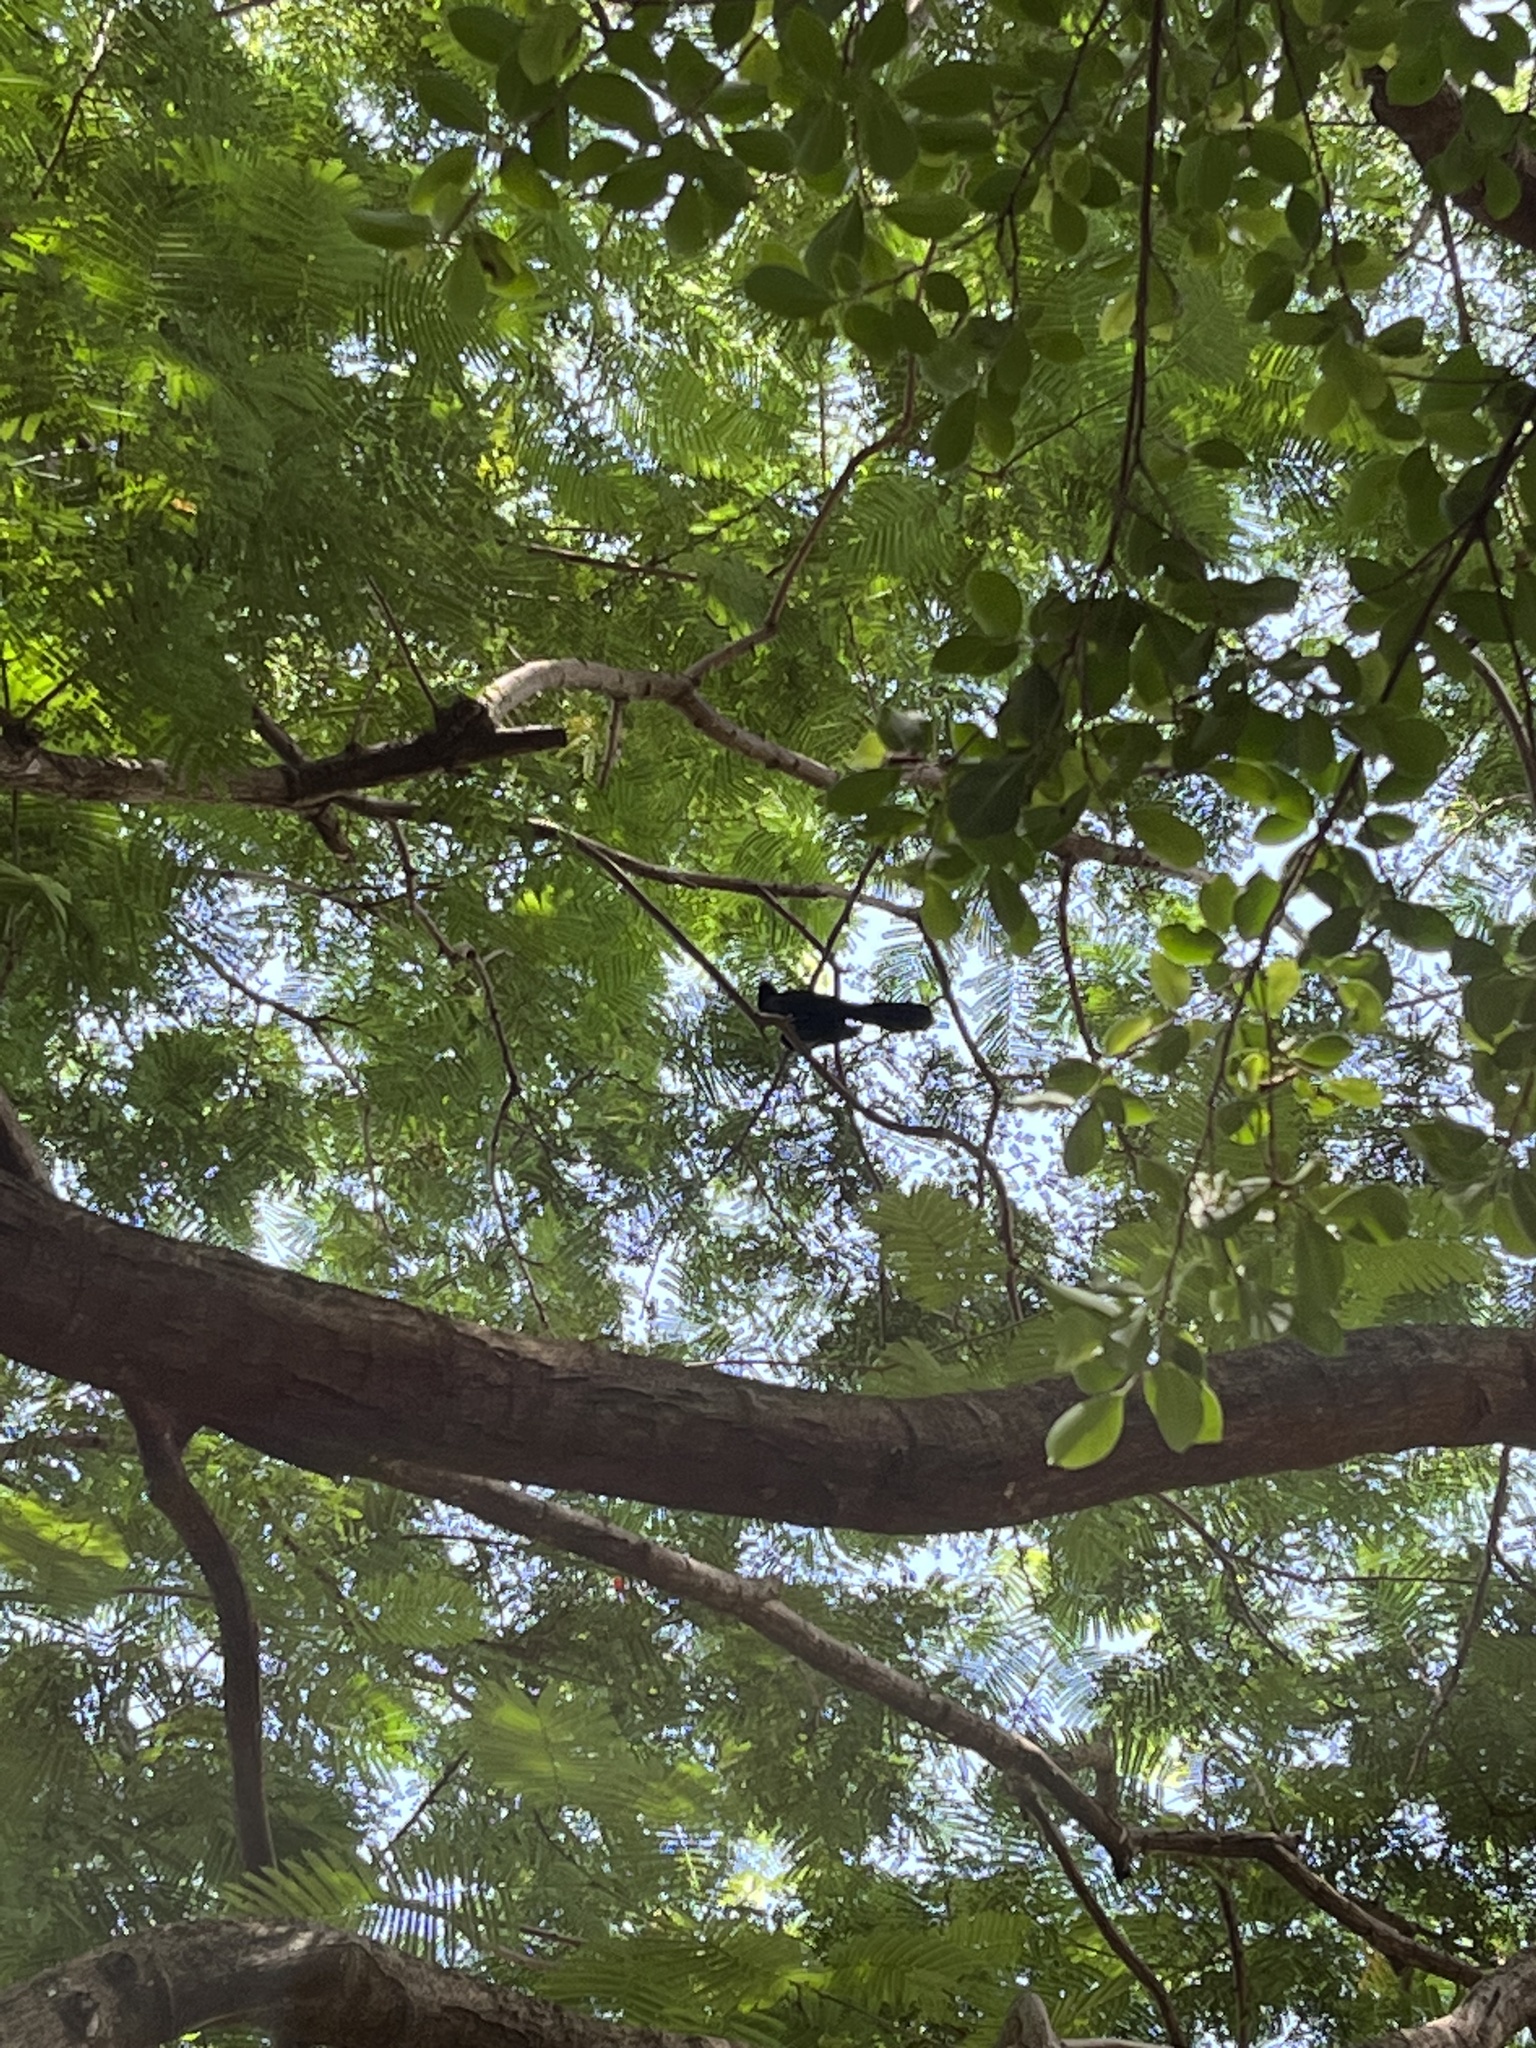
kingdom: Animalia
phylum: Chordata
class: Aves
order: Cuculiformes
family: Cuculidae
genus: Eudynamys
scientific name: Eudynamys scolopaceus
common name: Asian koel
